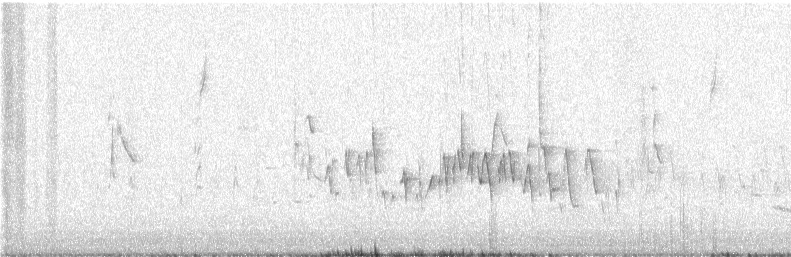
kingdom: Animalia
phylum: Chordata
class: Aves
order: Passeriformes
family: Fringillidae
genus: Haemorhous
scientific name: Haemorhous mexicanus
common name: House finch
